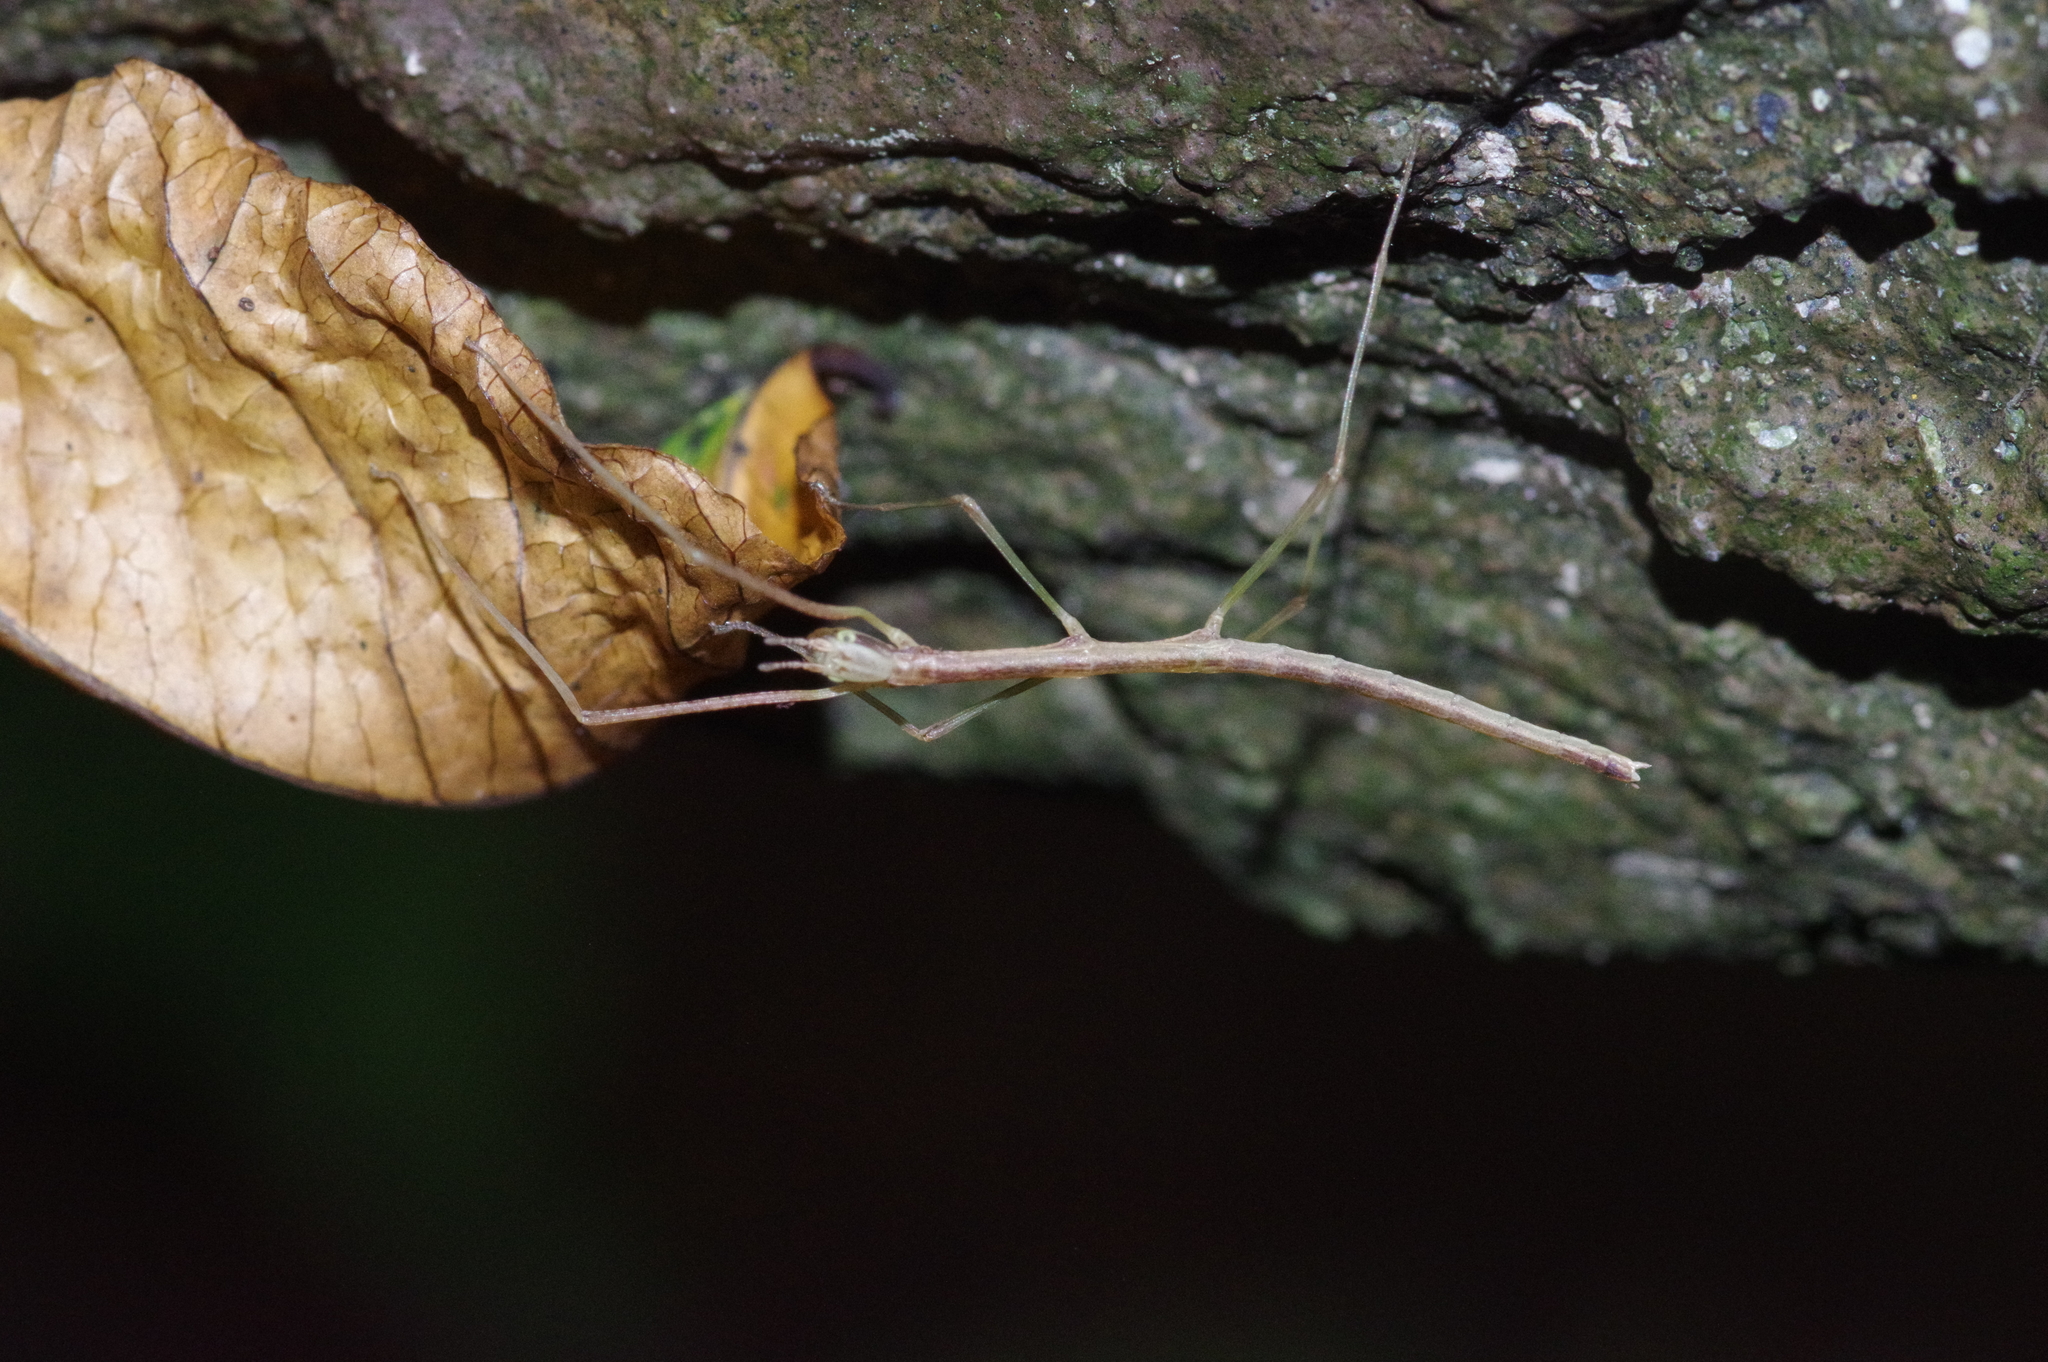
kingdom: Animalia
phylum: Arthropoda
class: Insecta
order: Phasmida
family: Phasmatidae
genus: Entoria
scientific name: Entoria miyakoensis
